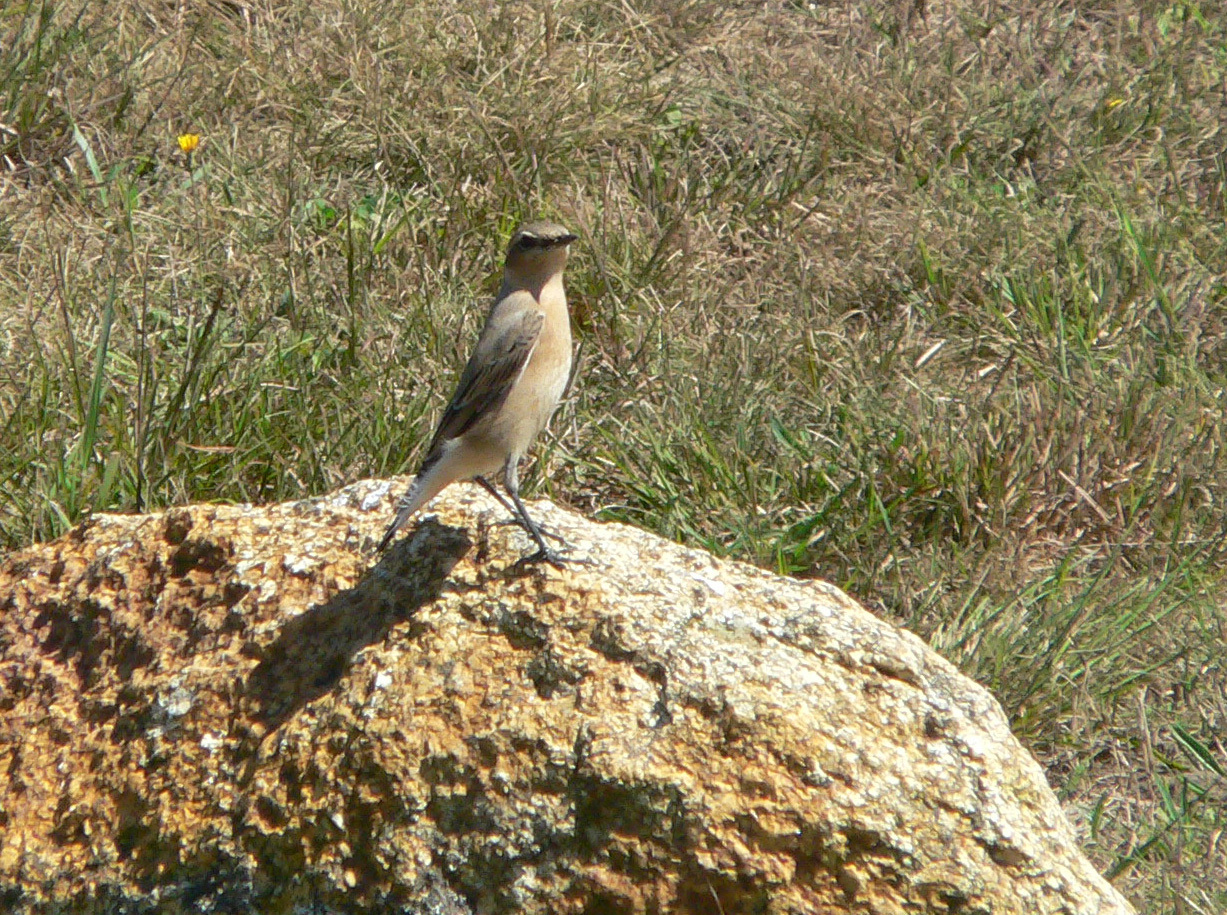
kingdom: Animalia
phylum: Chordata
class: Aves
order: Passeriformes
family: Muscicapidae
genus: Oenanthe
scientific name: Oenanthe oenanthe
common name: Northern wheatear
